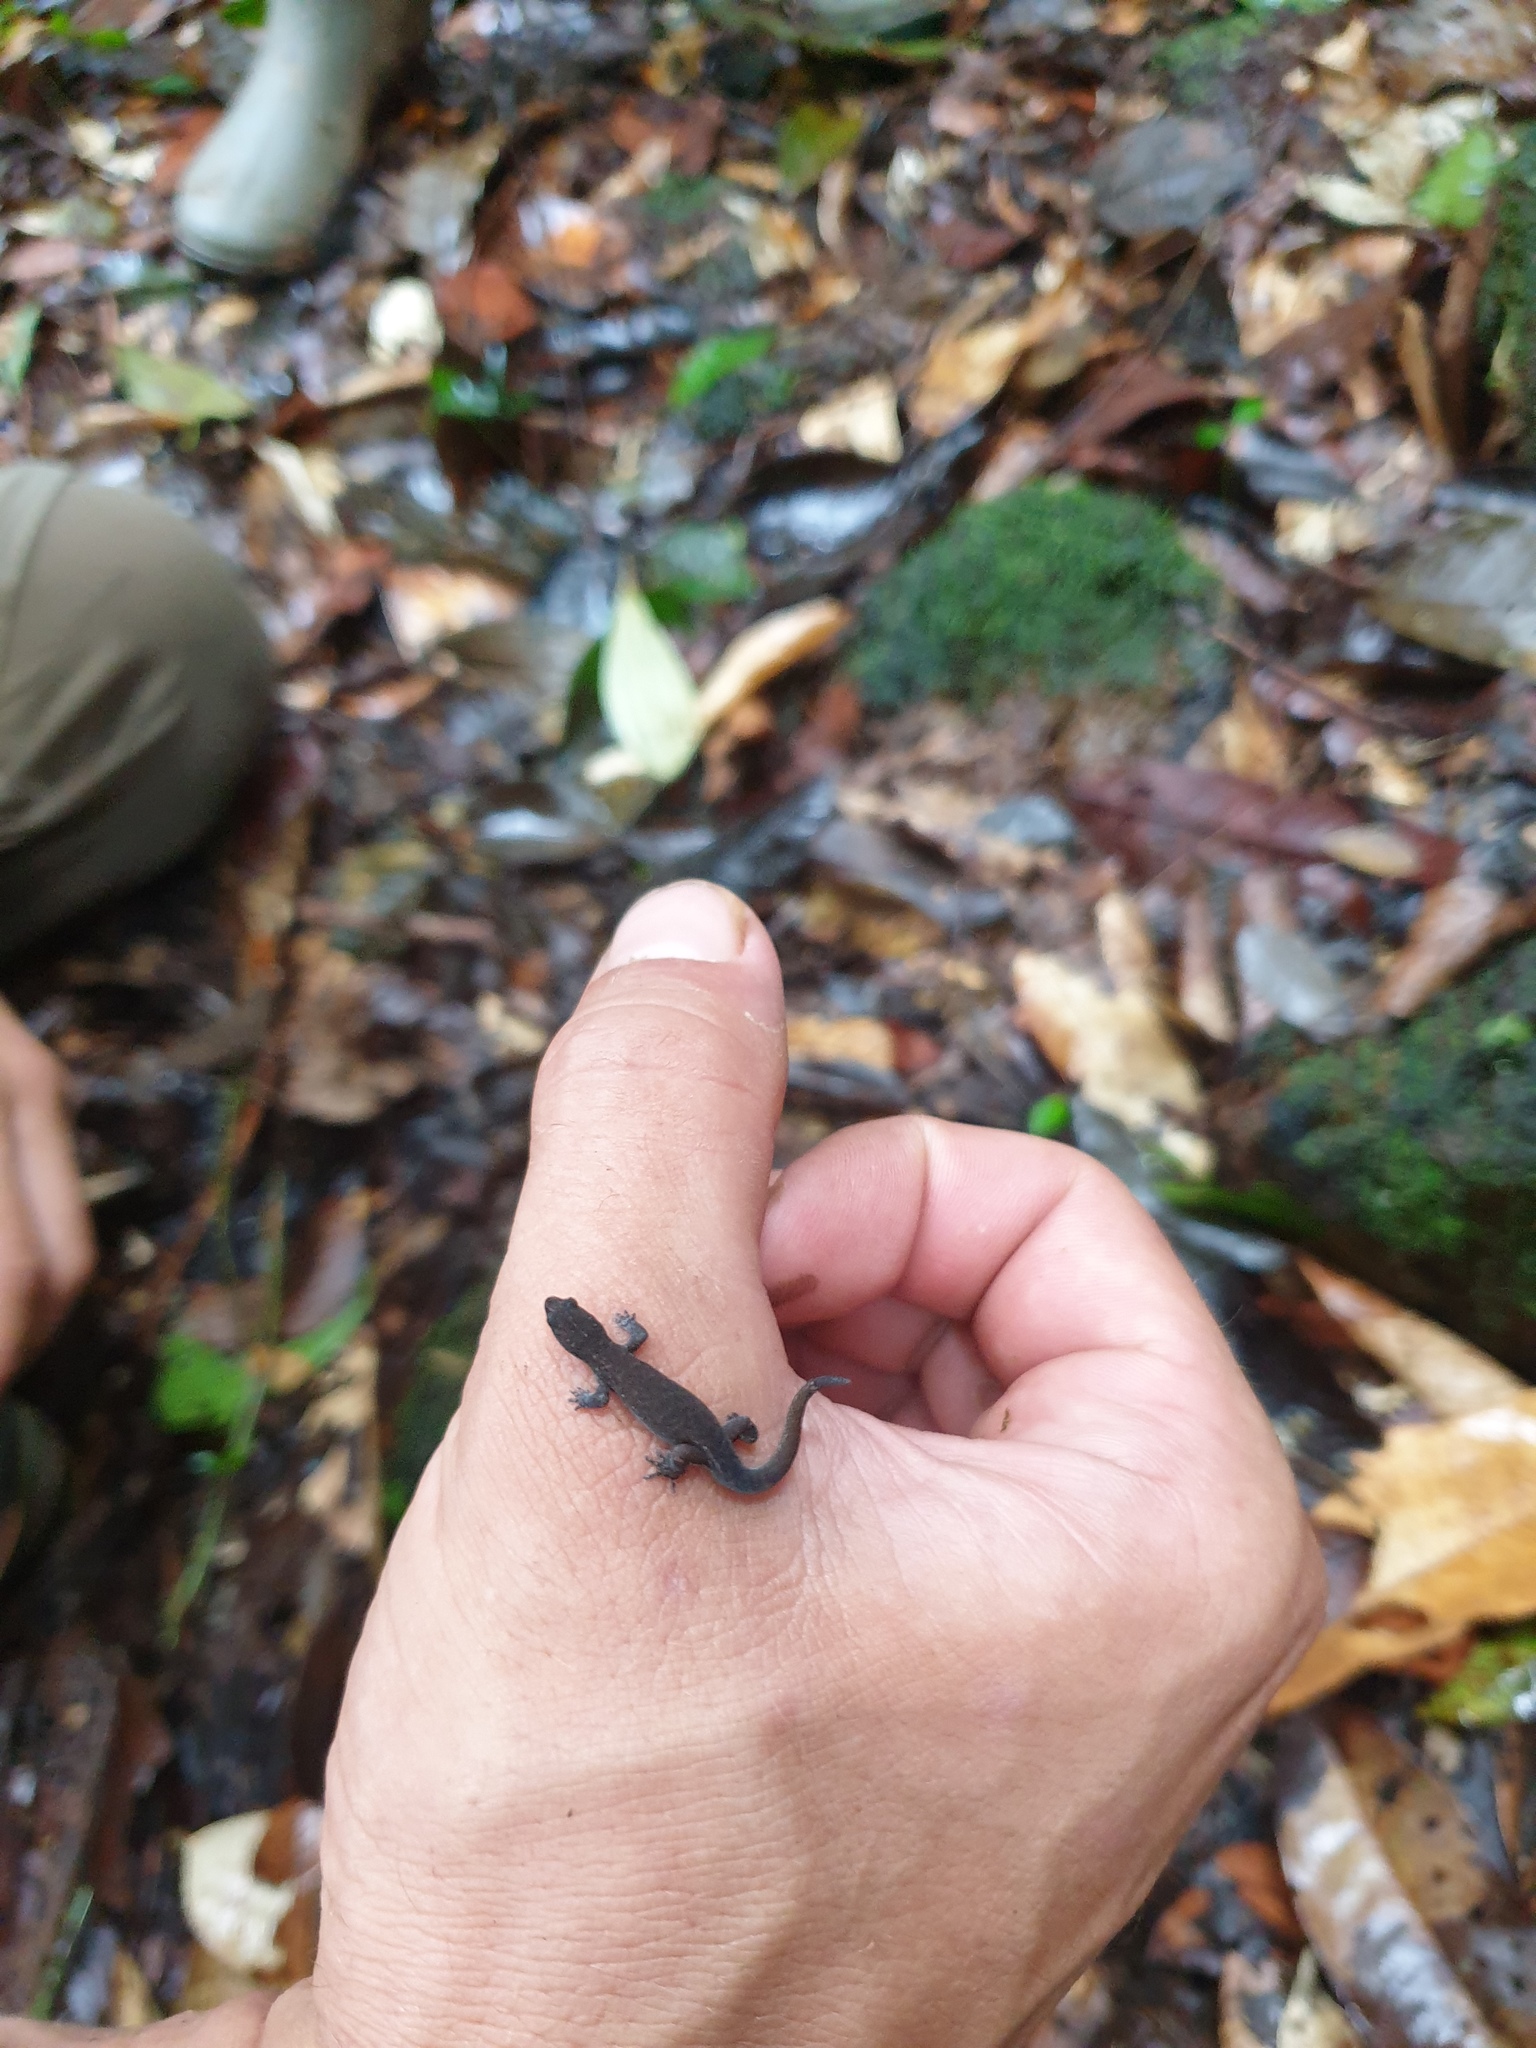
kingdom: Animalia
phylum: Chordata
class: Squamata
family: Sphaerodactylidae
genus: Chatogekko
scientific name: Chatogekko amazonicus
